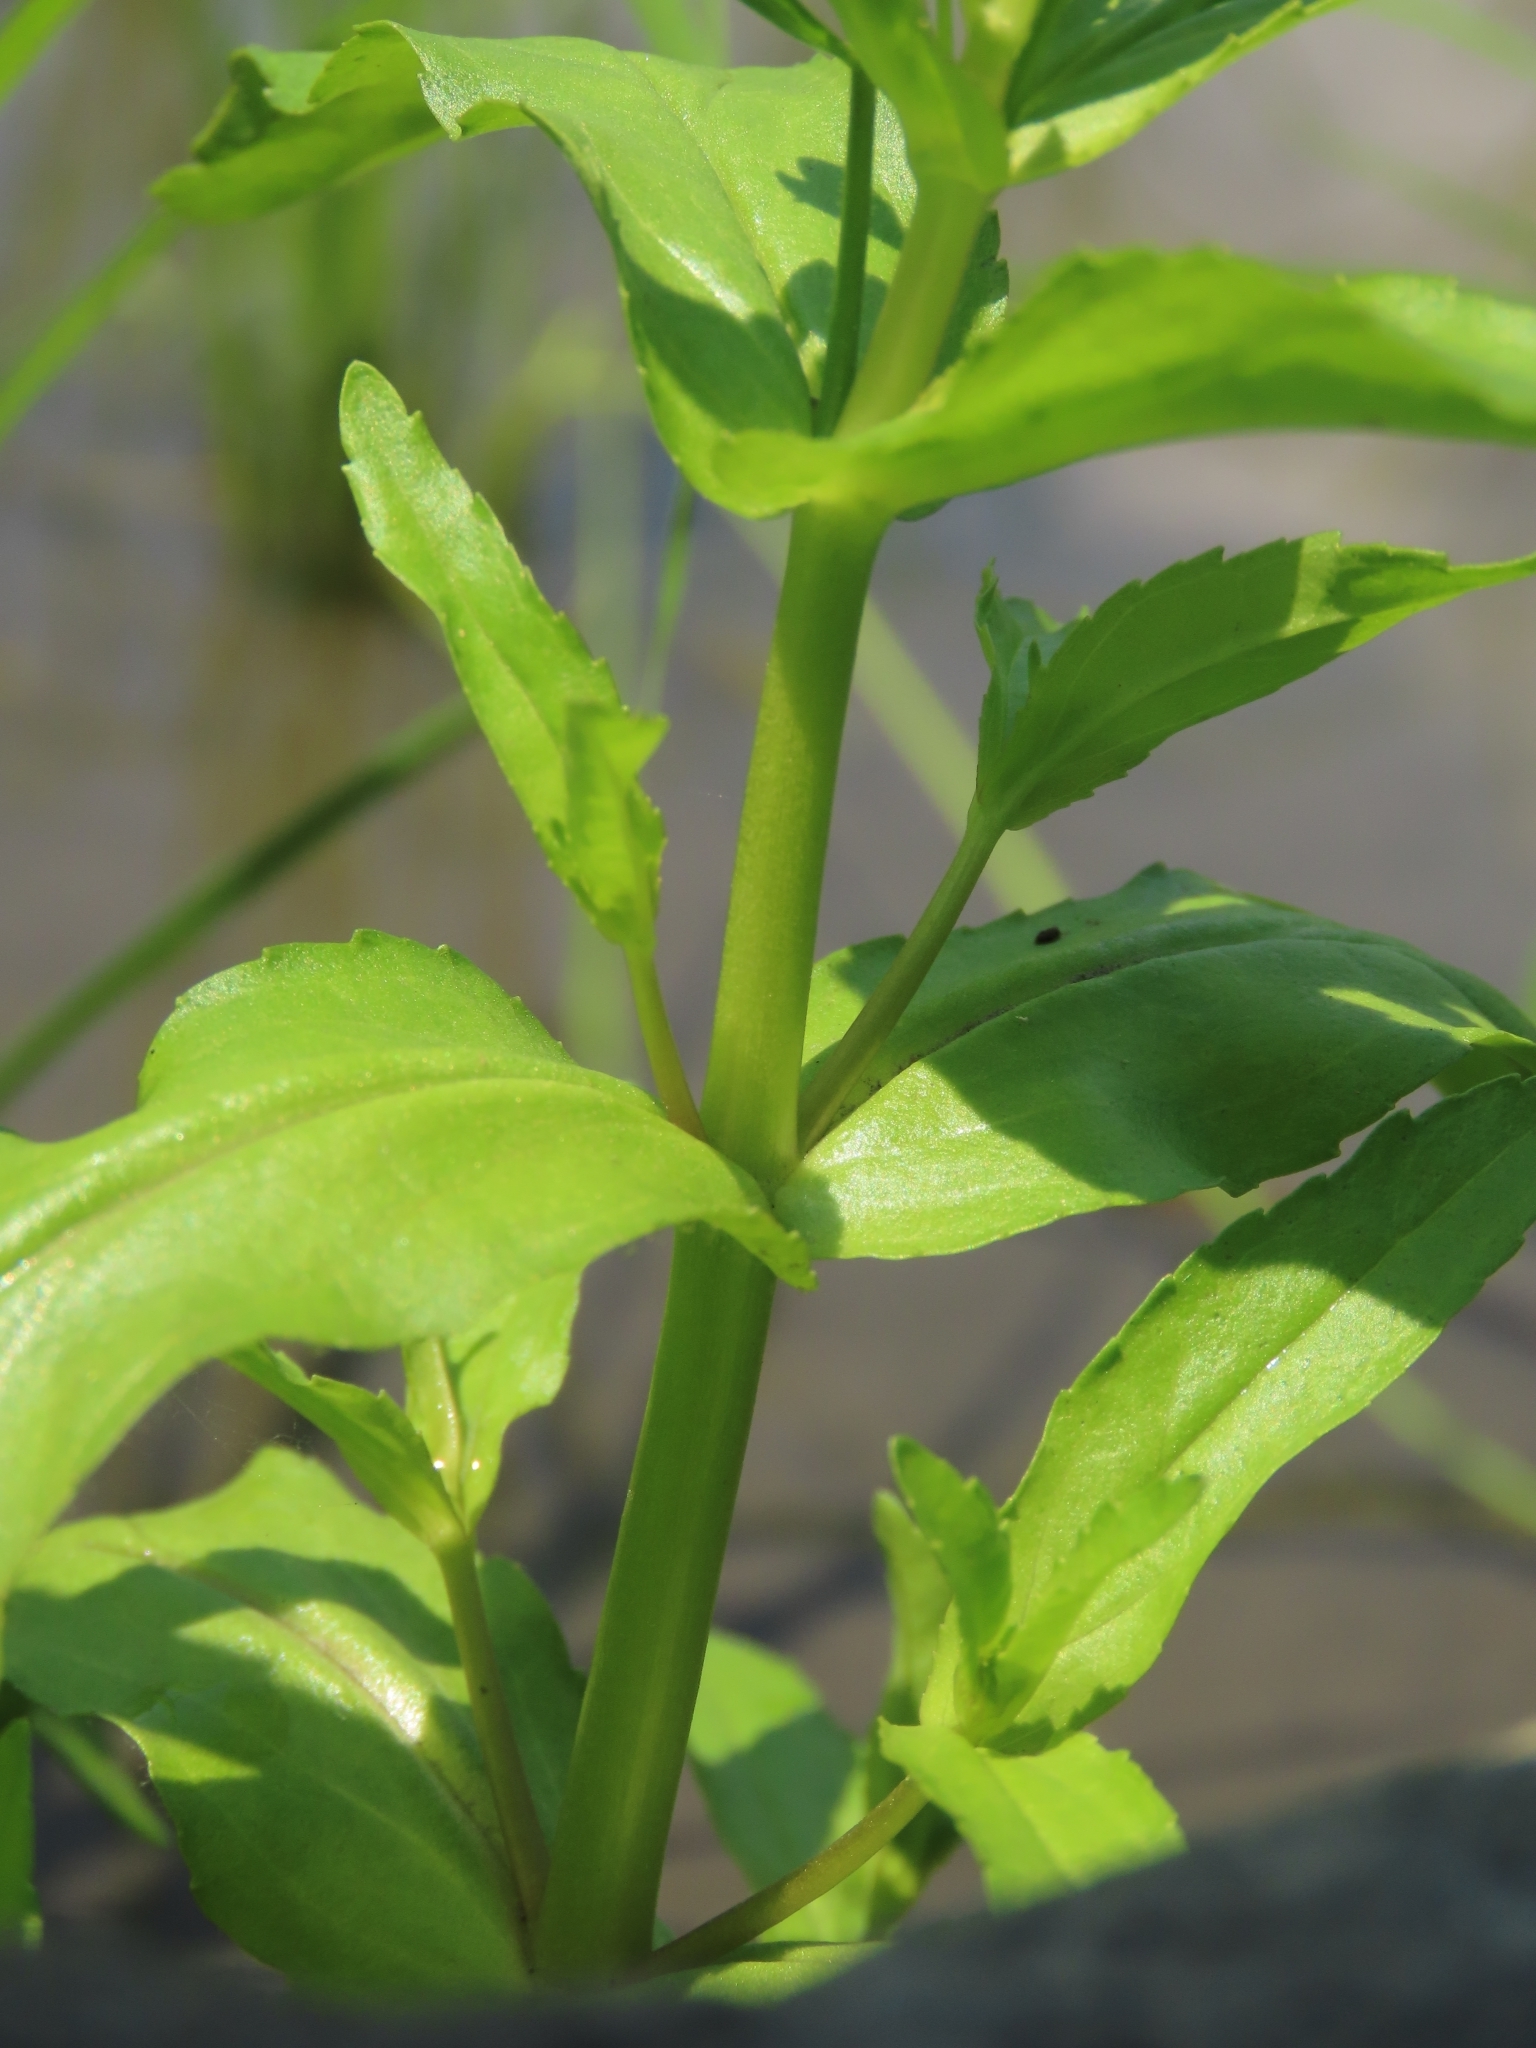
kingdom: Plantae
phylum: Tracheophyta
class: Magnoliopsida
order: Lamiales
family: Plantaginaceae
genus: Veronica
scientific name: Veronica undulata
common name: Undulate speedwell
